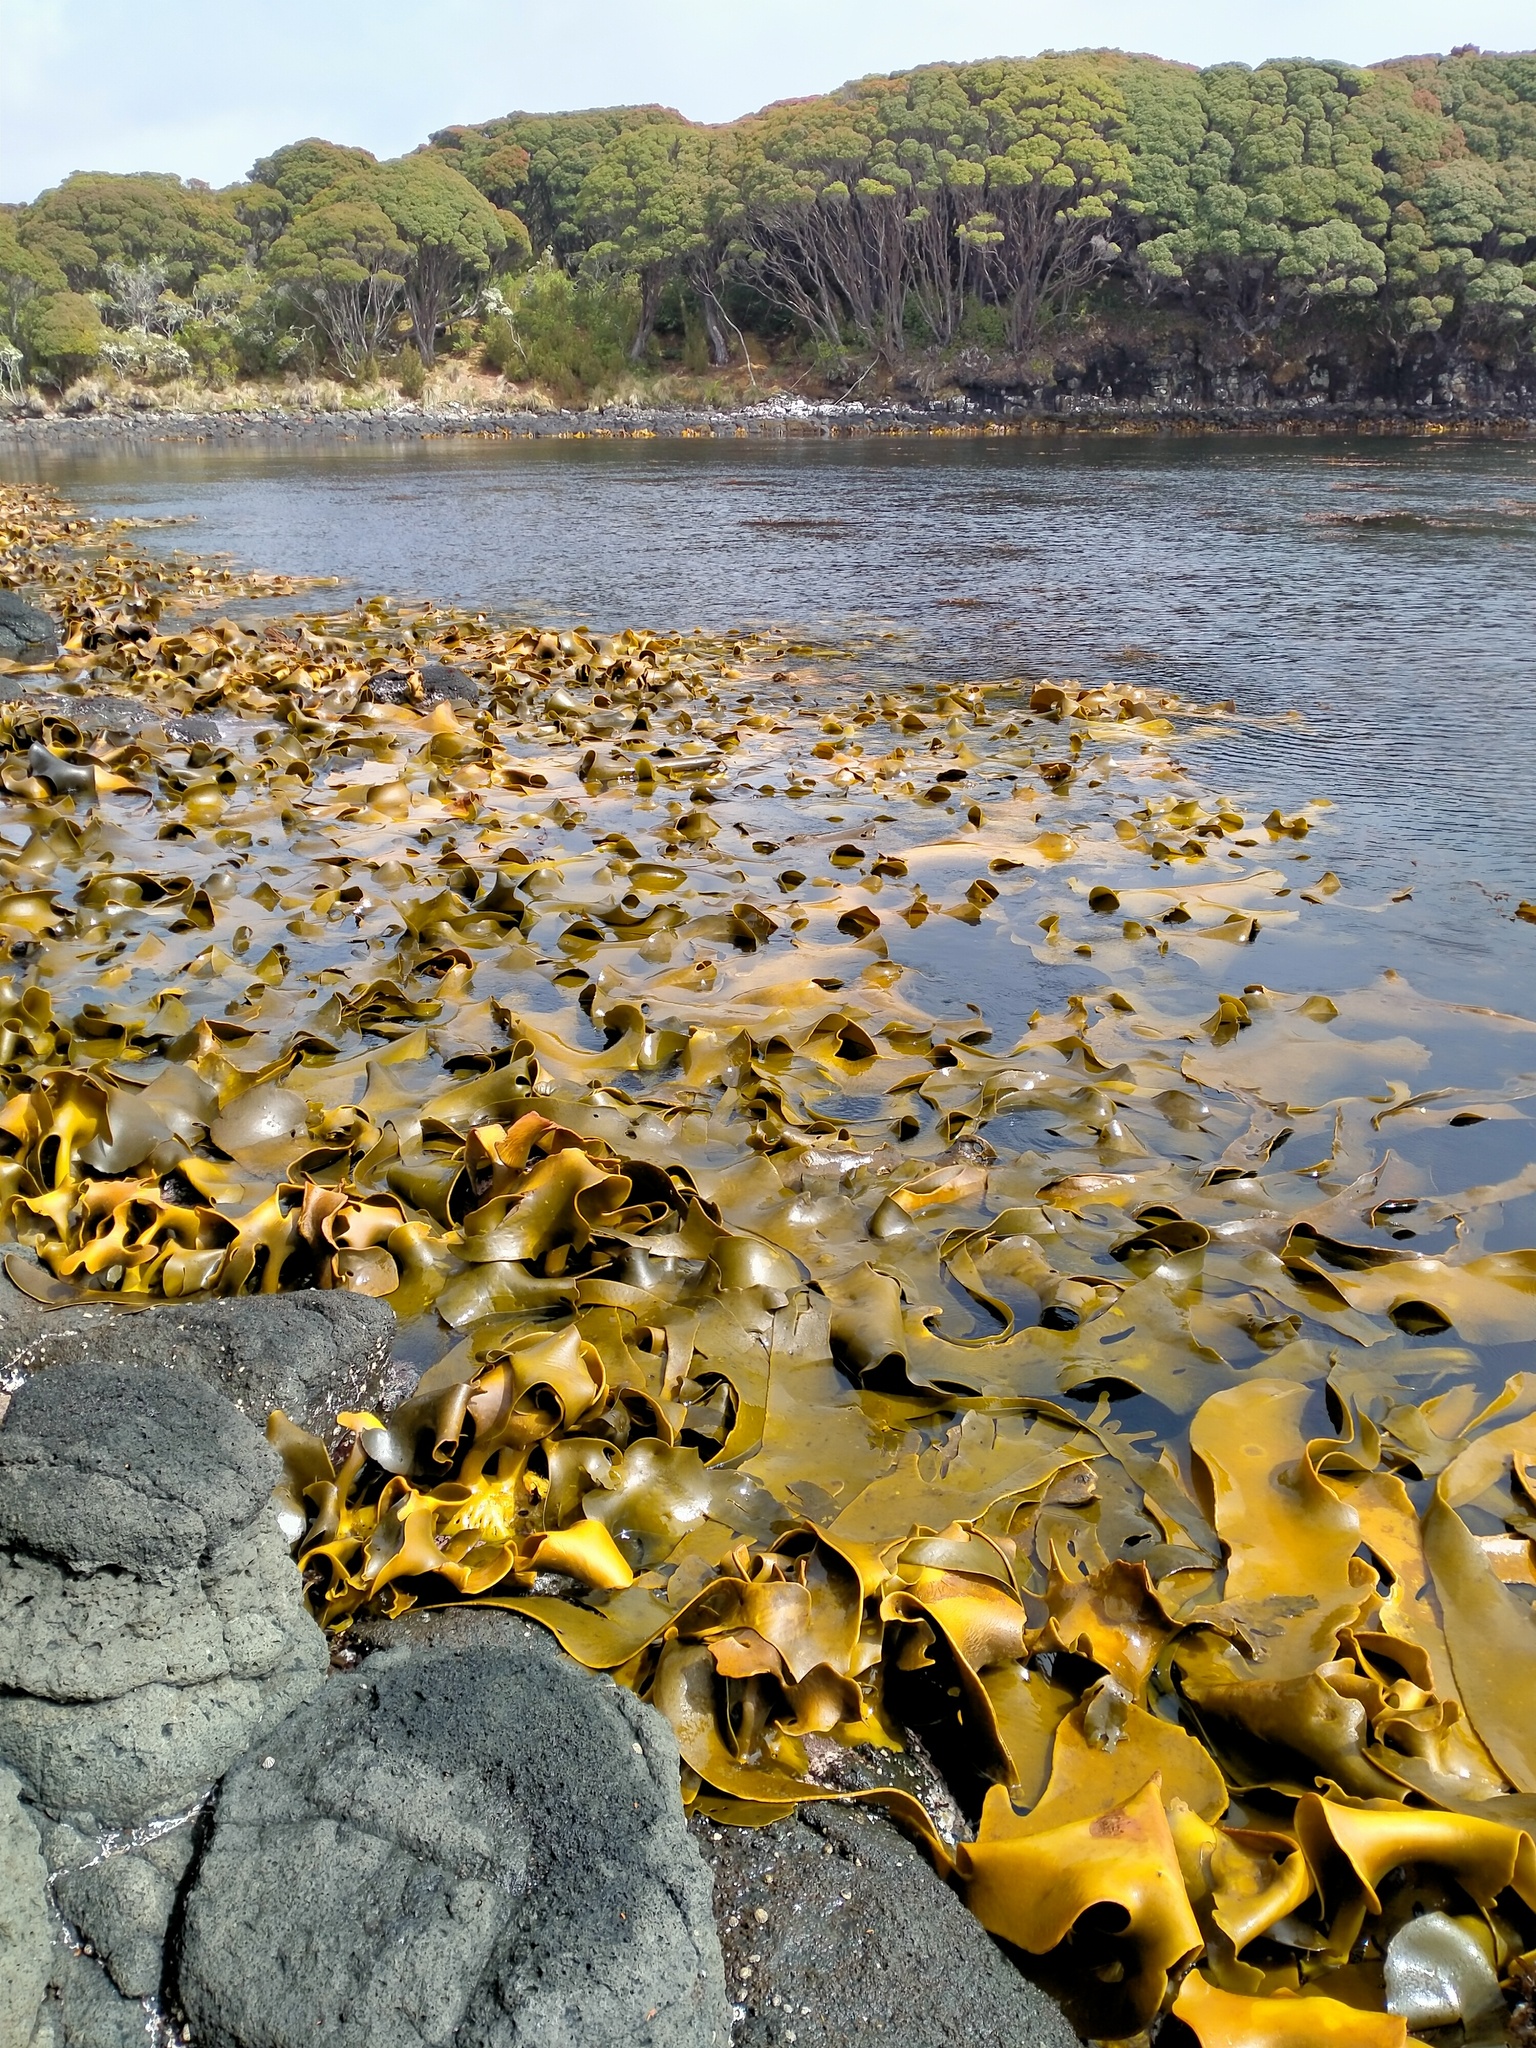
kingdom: Chromista
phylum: Ochrophyta
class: Phaeophyceae
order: Fucales
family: Durvillaeaceae
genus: Durvillaea
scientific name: Durvillaea poha
